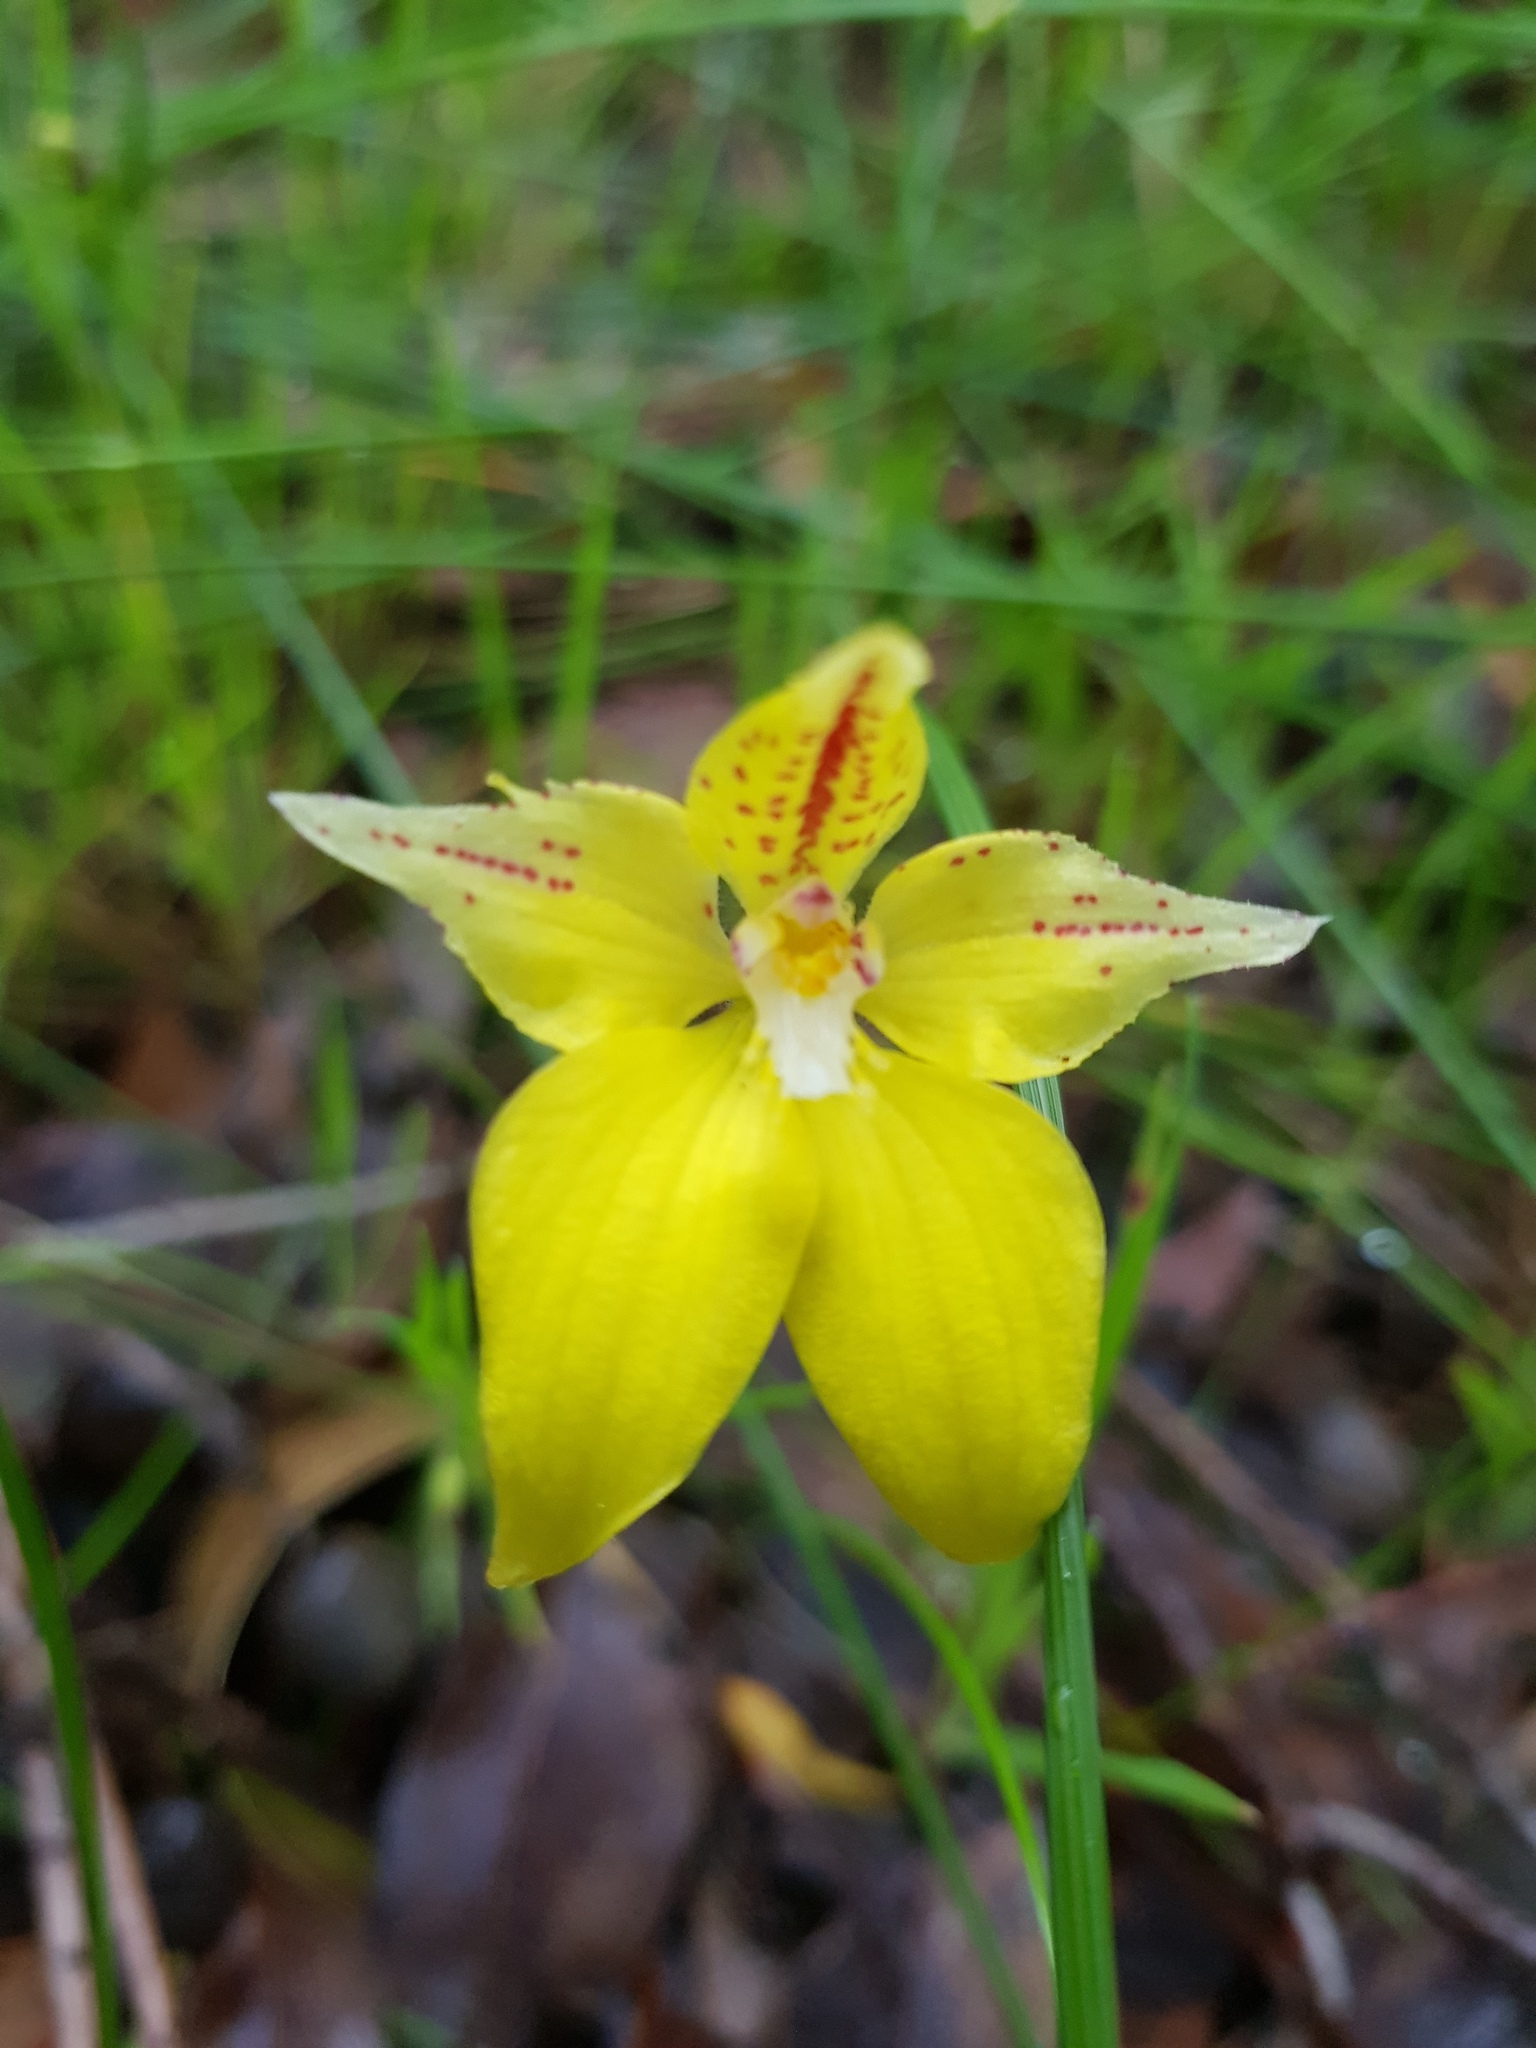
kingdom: Plantae
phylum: Tracheophyta
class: Liliopsida
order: Asparagales
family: Orchidaceae
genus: Caladenia
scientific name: Caladenia flava
